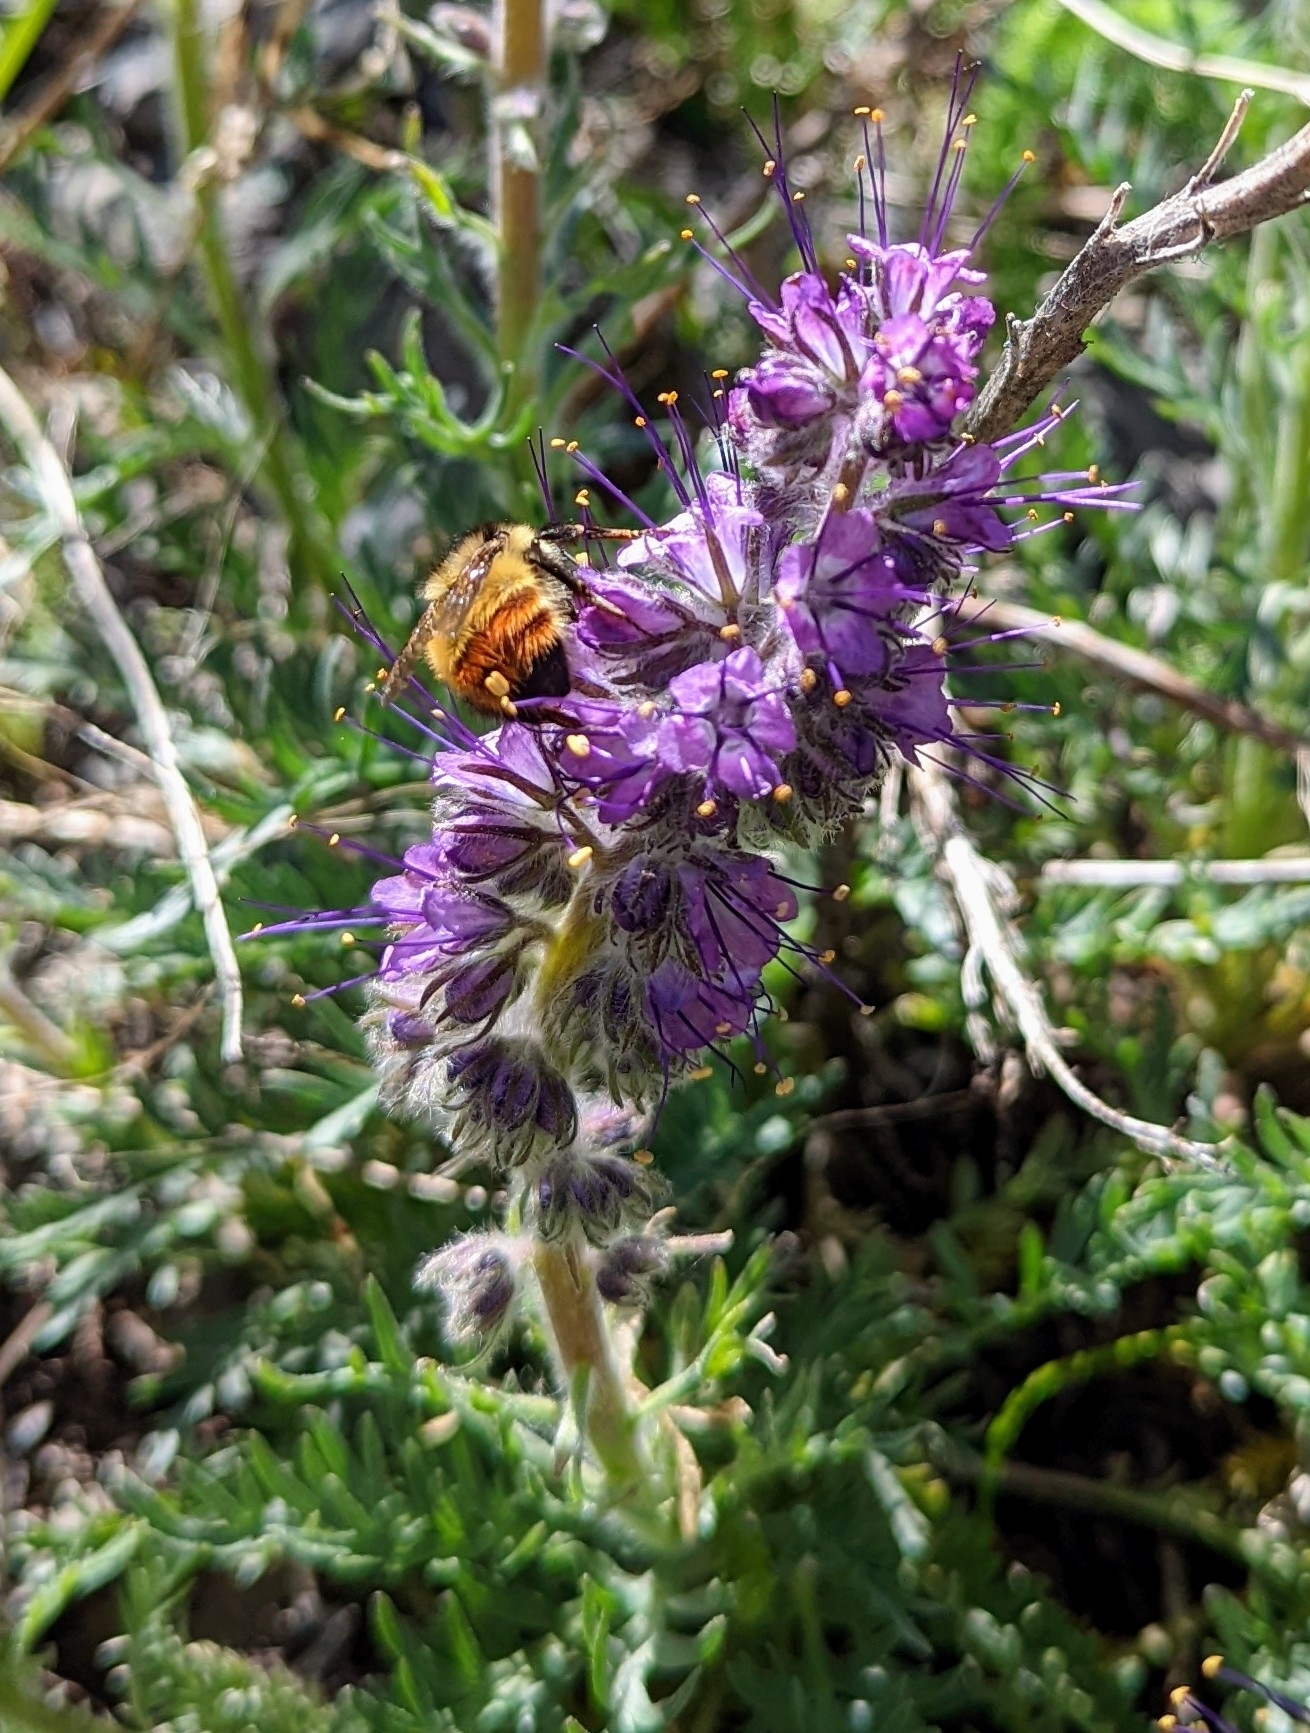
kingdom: Plantae
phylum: Tracheophyta
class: Magnoliopsida
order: Boraginales
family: Hydrophyllaceae
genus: Phacelia
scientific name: Phacelia sericea
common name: Silky phacelia
